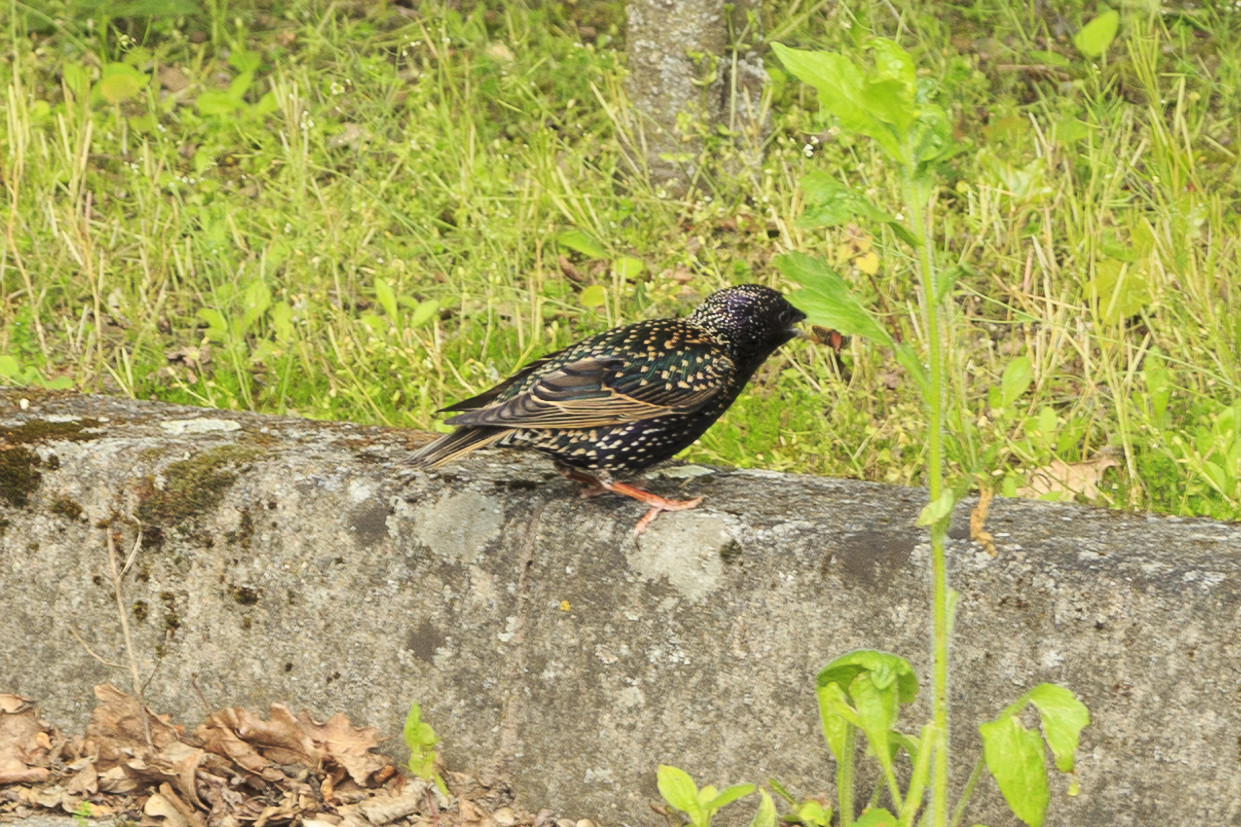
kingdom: Animalia
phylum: Chordata
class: Aves
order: Passeriformes
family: Sturnidae
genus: Sturnus
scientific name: Sturnus vulgaris
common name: Common starling
